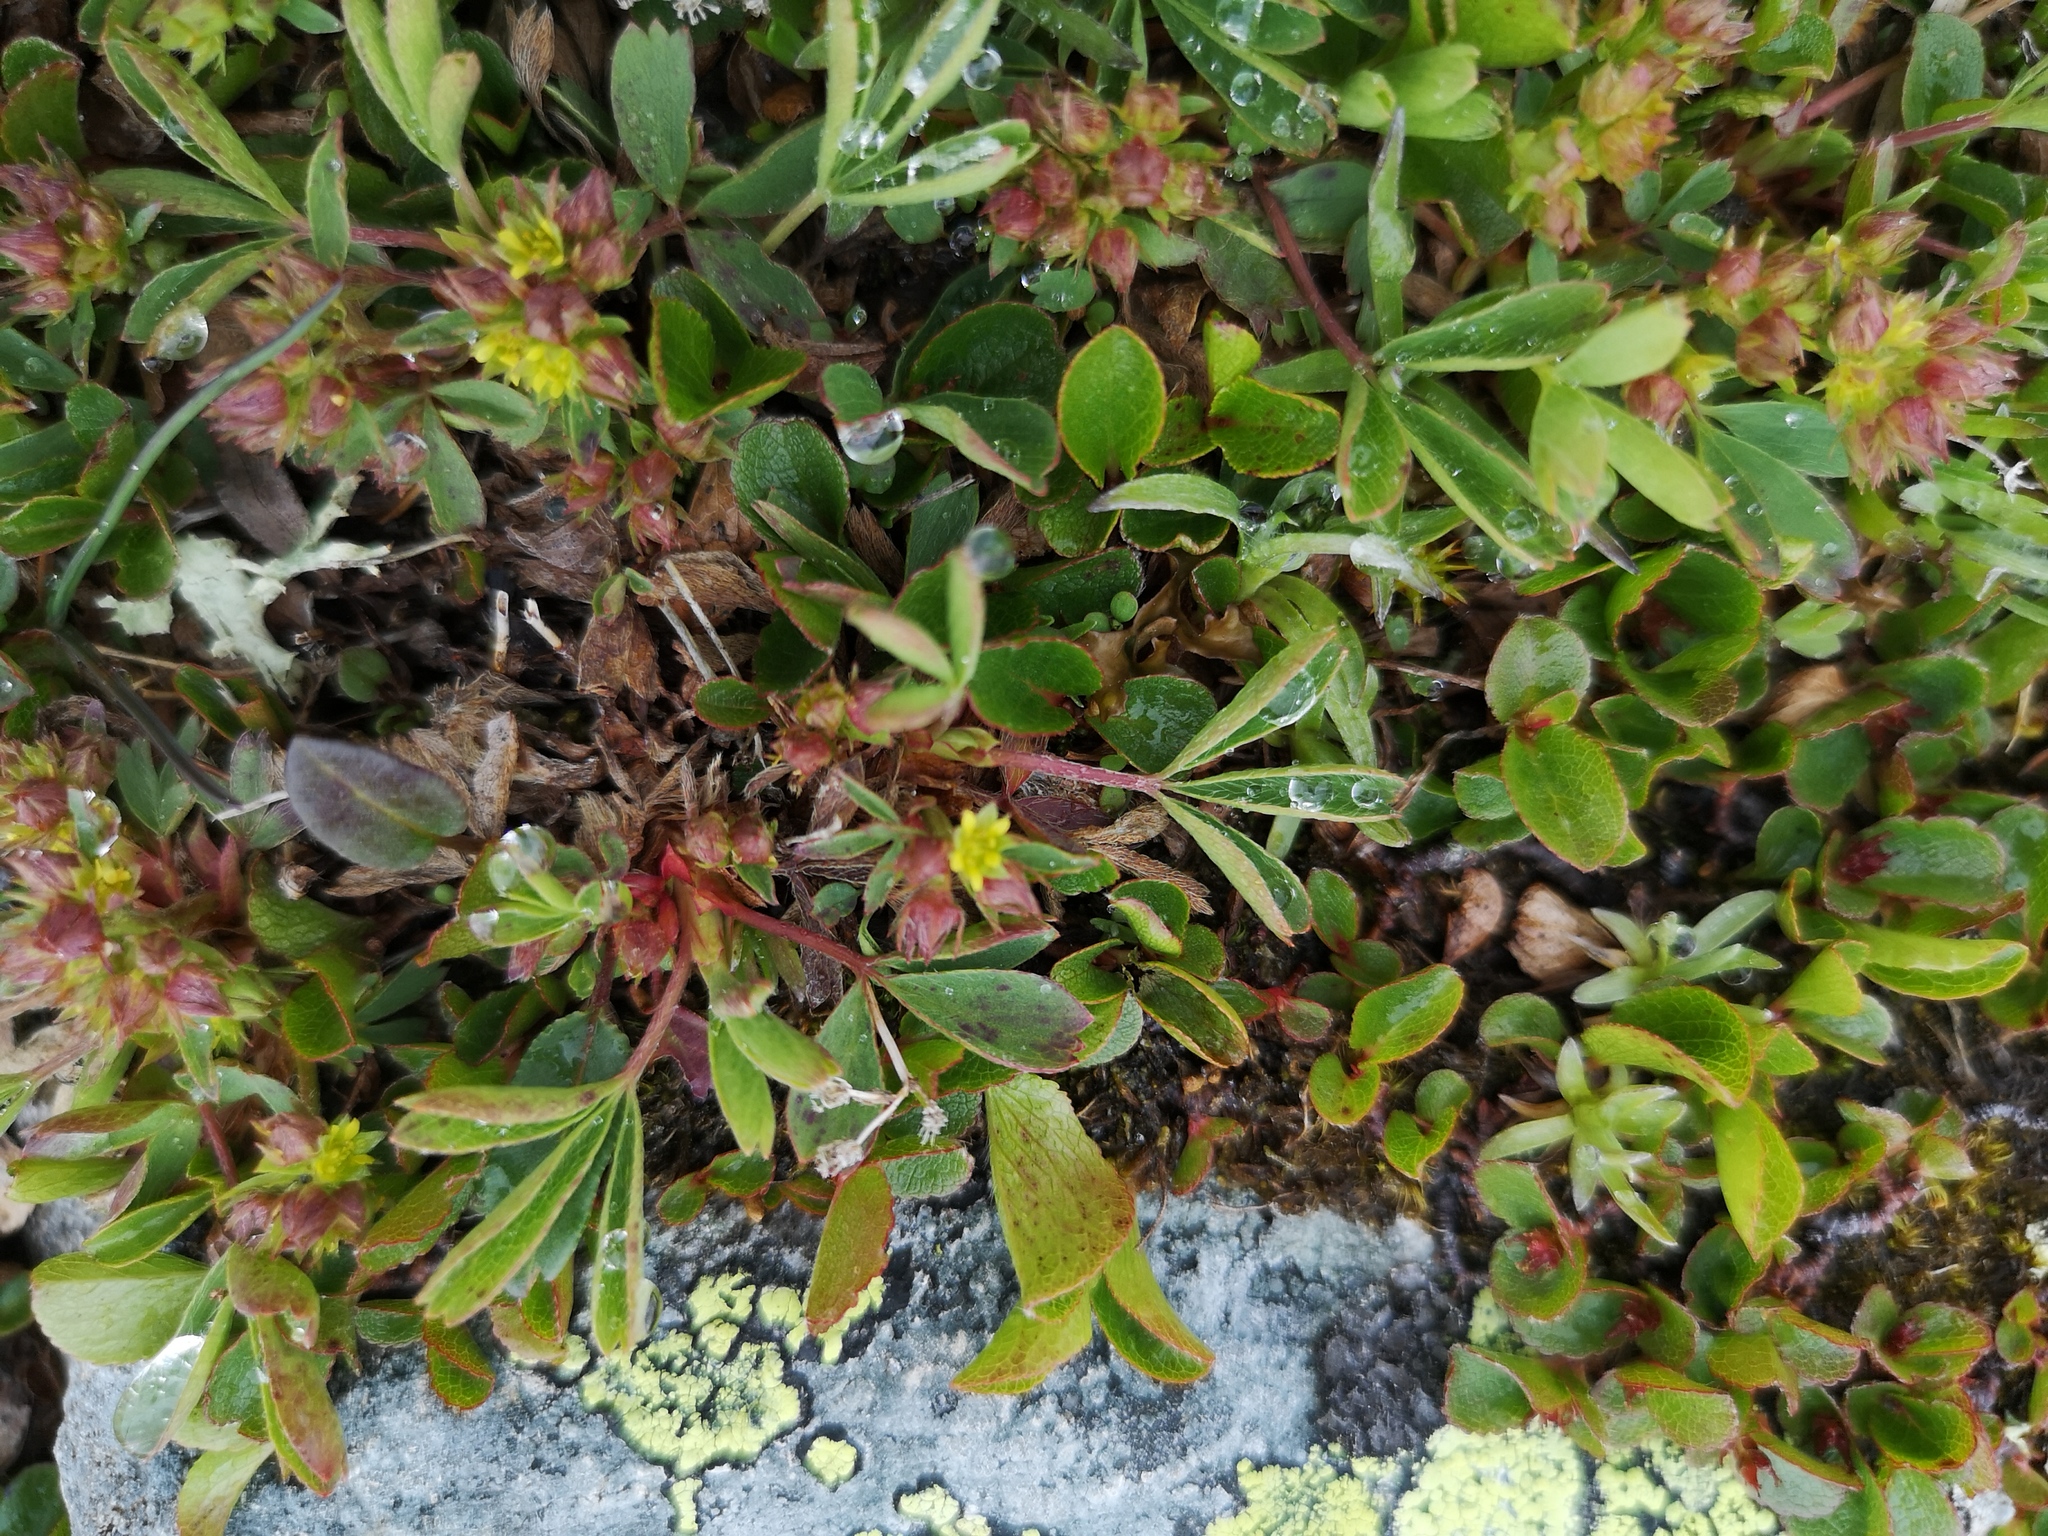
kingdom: Plantae
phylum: Tracheophyta
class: Magnoliopsida
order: Rosales
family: Rosaceae
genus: Sibbaldia
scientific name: Sibbaldia procumbens
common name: Creeping sibbaldia
